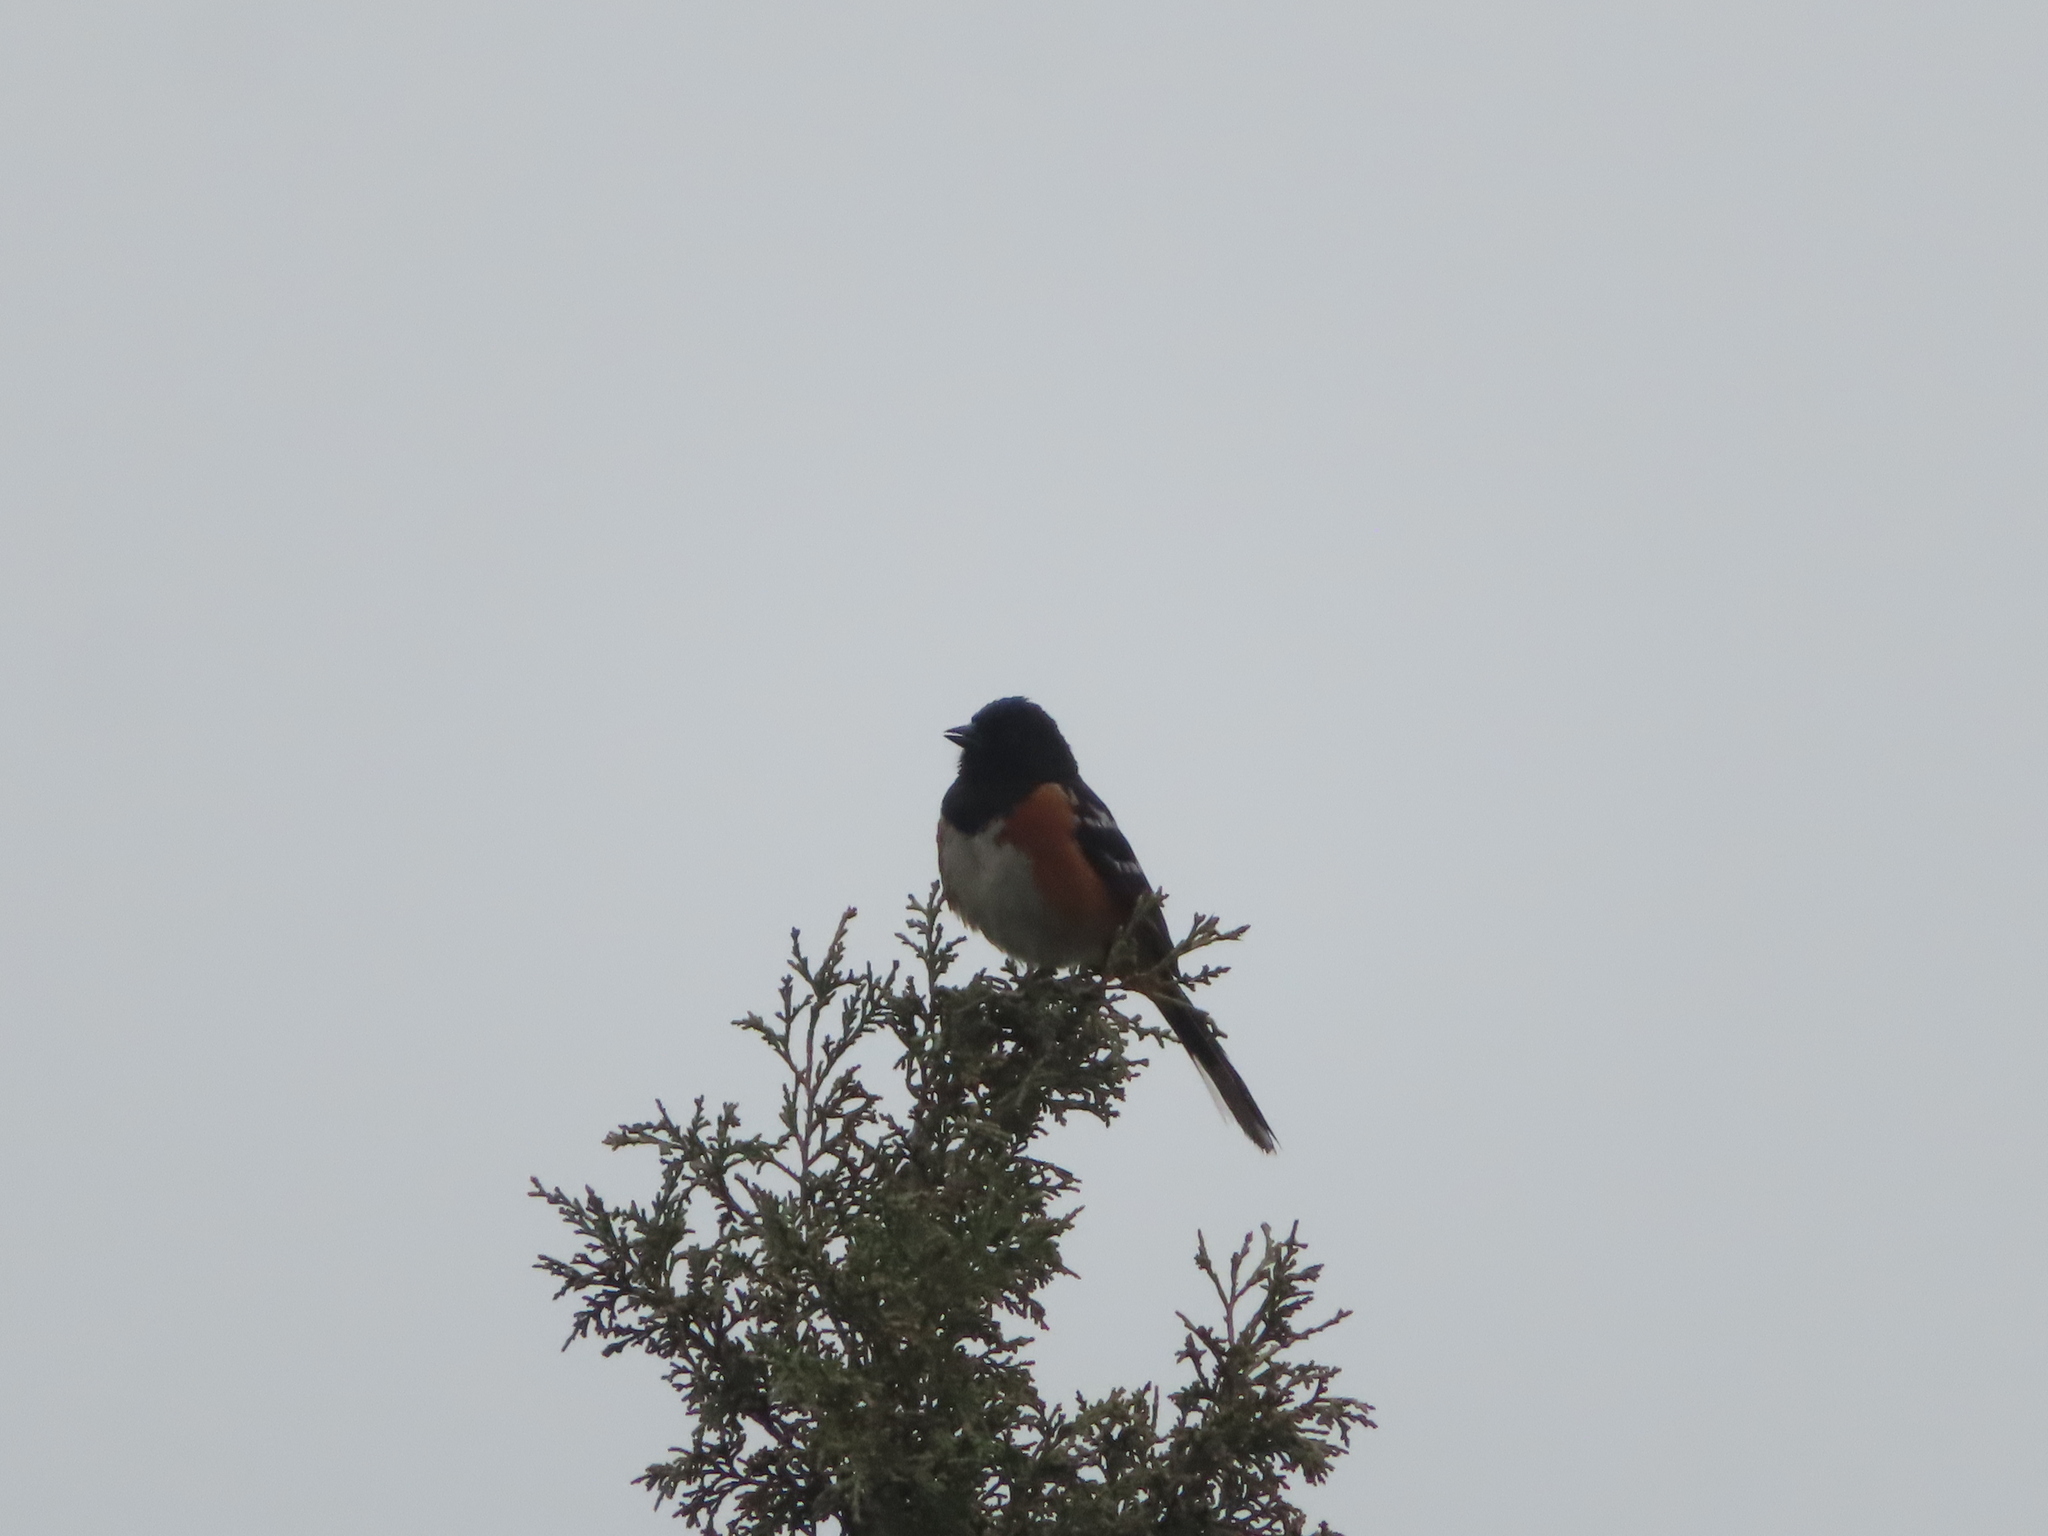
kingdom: Animalia
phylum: Chordata
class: Aves
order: Passeriformes
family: Passerellidae
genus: Pipilo
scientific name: Pipilo maculatus
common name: Spotted towhee
